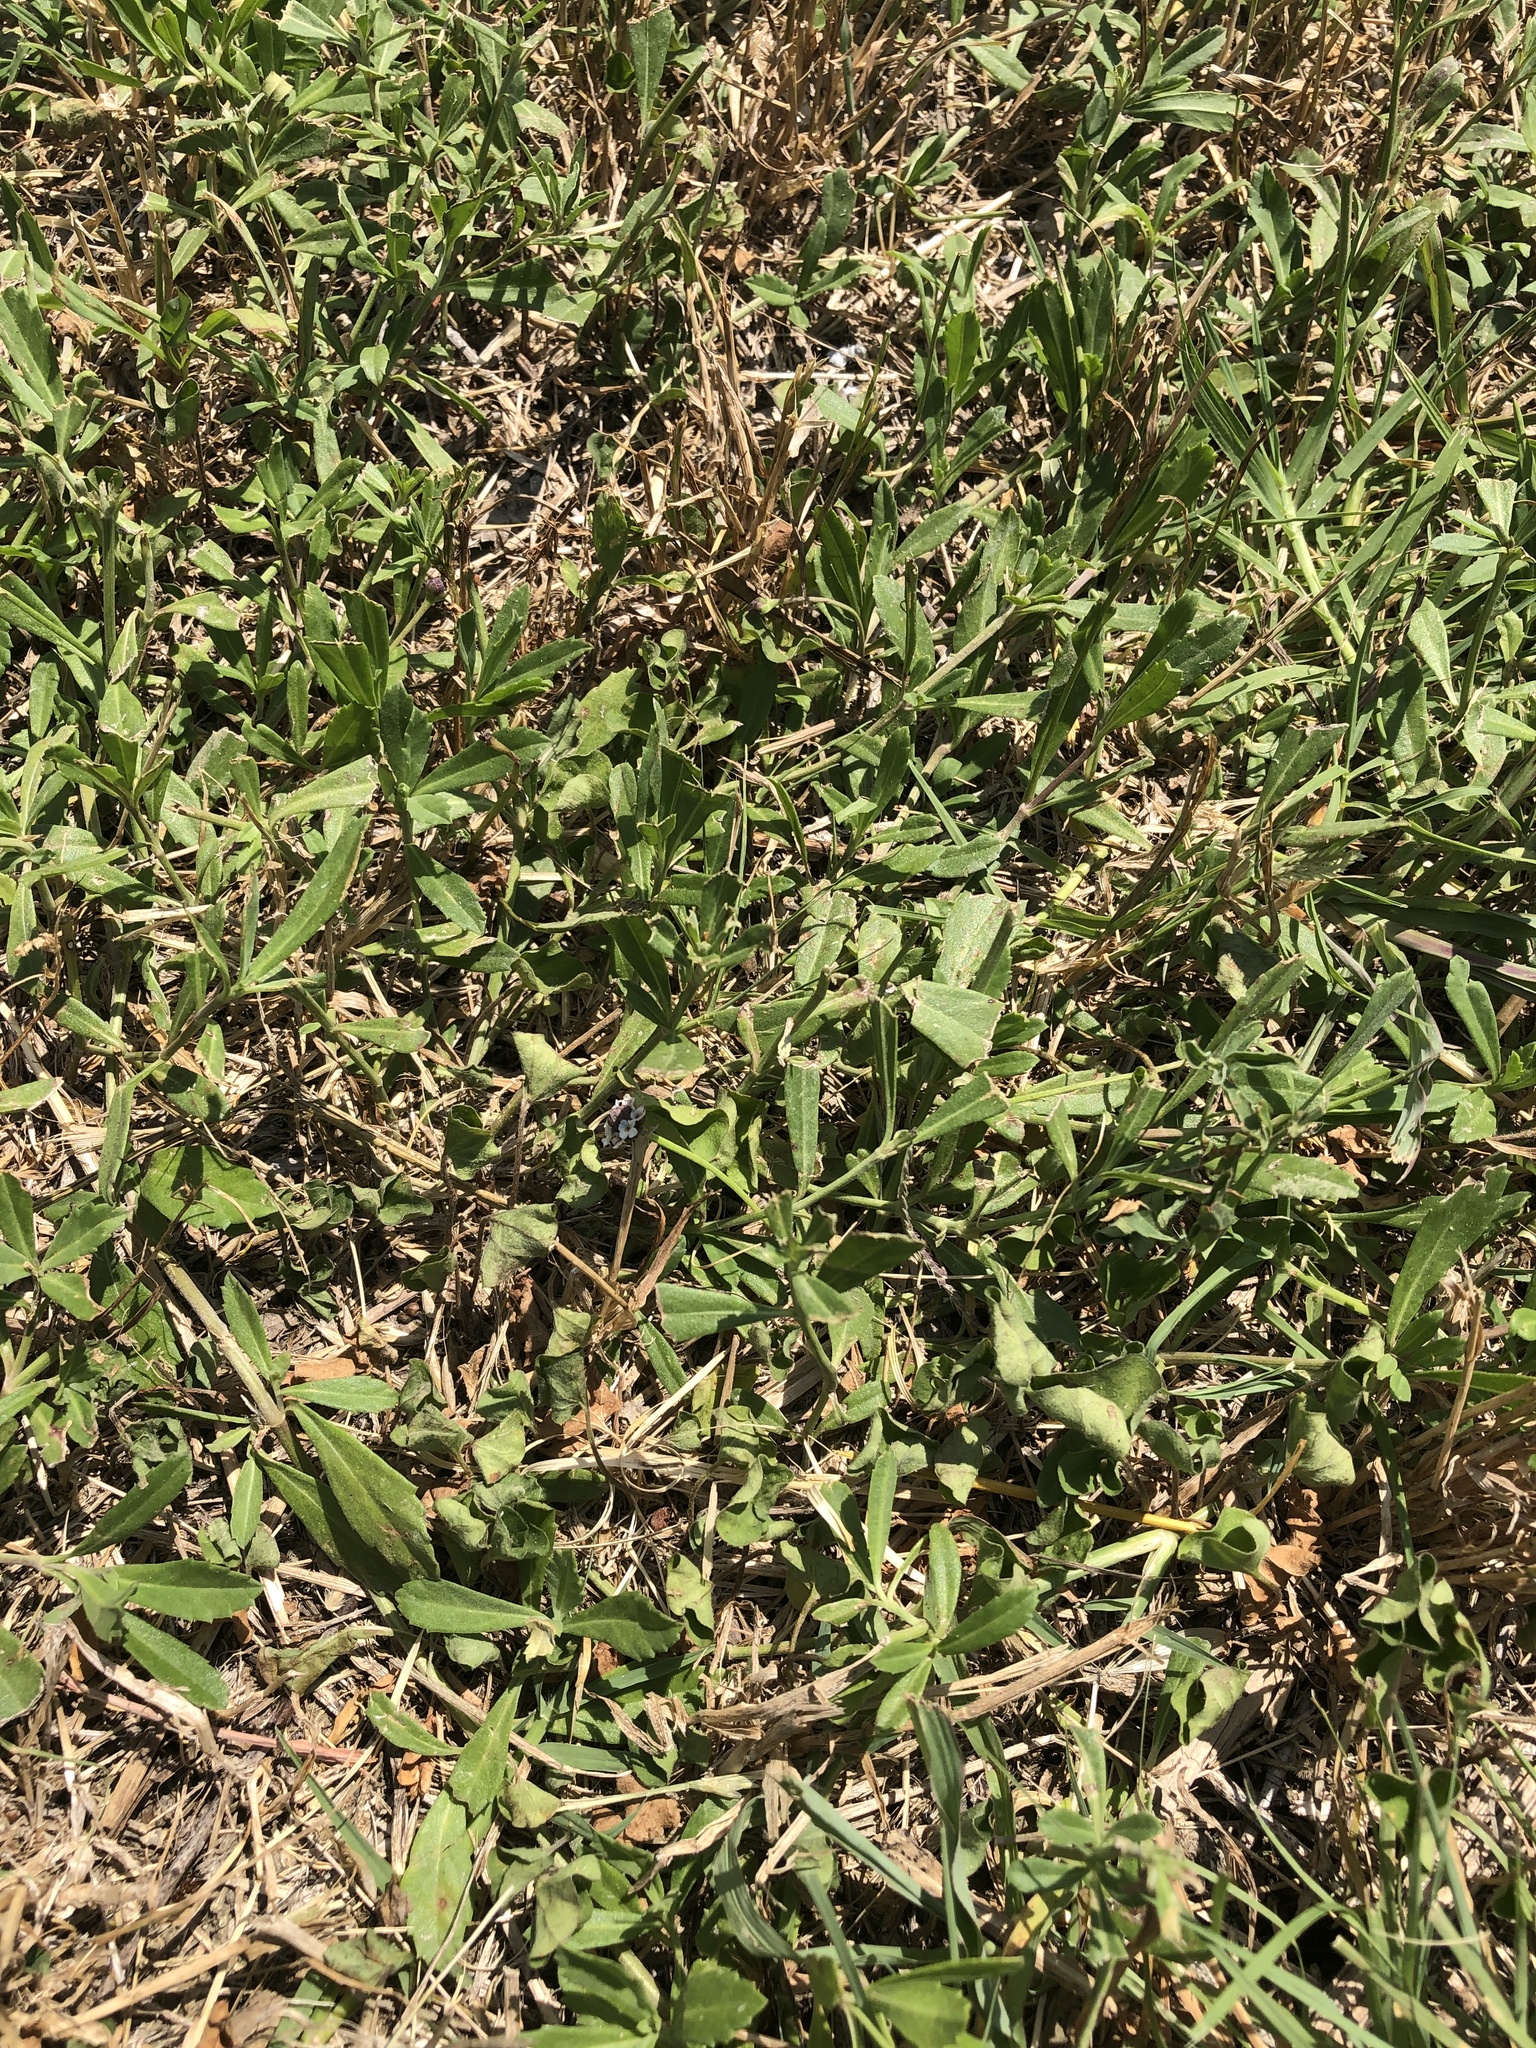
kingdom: Plantae
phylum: Tracheophyta
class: Magnoliopsida
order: Lamiales
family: Verbenaceae
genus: Phyla
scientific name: Phyla nodiflora
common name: Frogfruit
